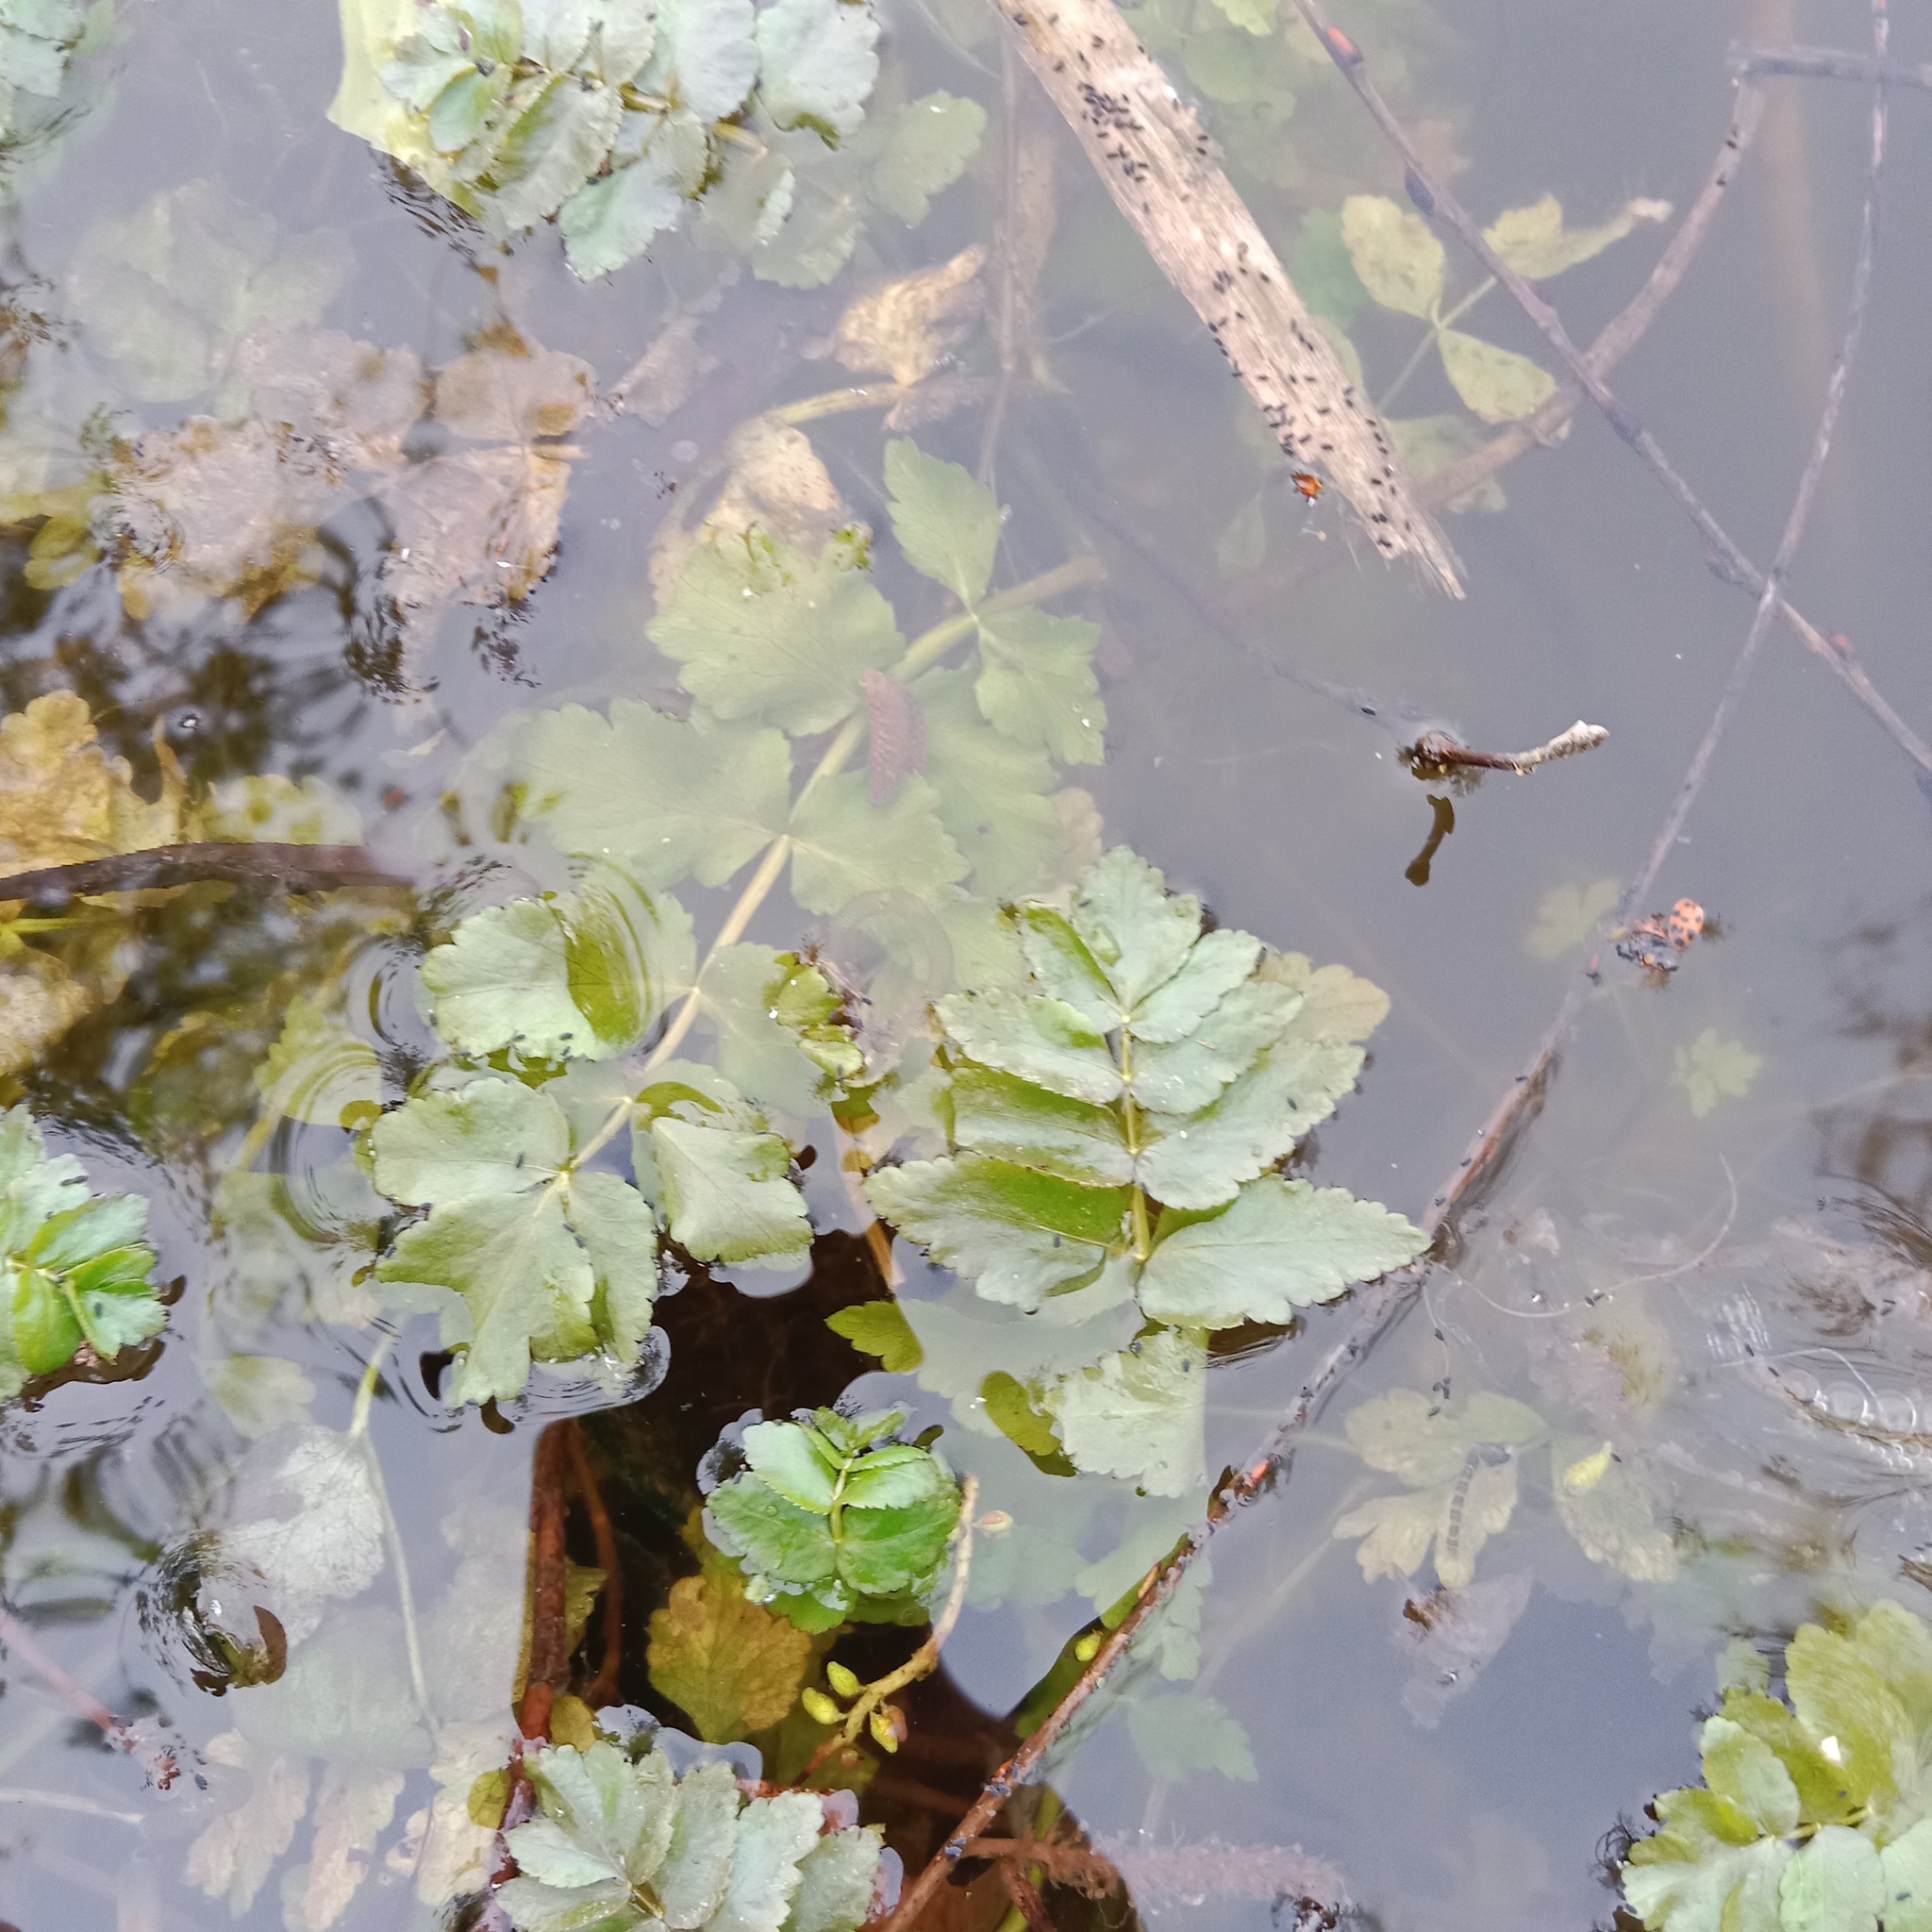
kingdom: Plantae
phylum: Tracheophyta
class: Magnoliopsida
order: Apiales
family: Apiaceae
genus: Berula
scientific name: Berula erecta
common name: Lesser water-parsnip
